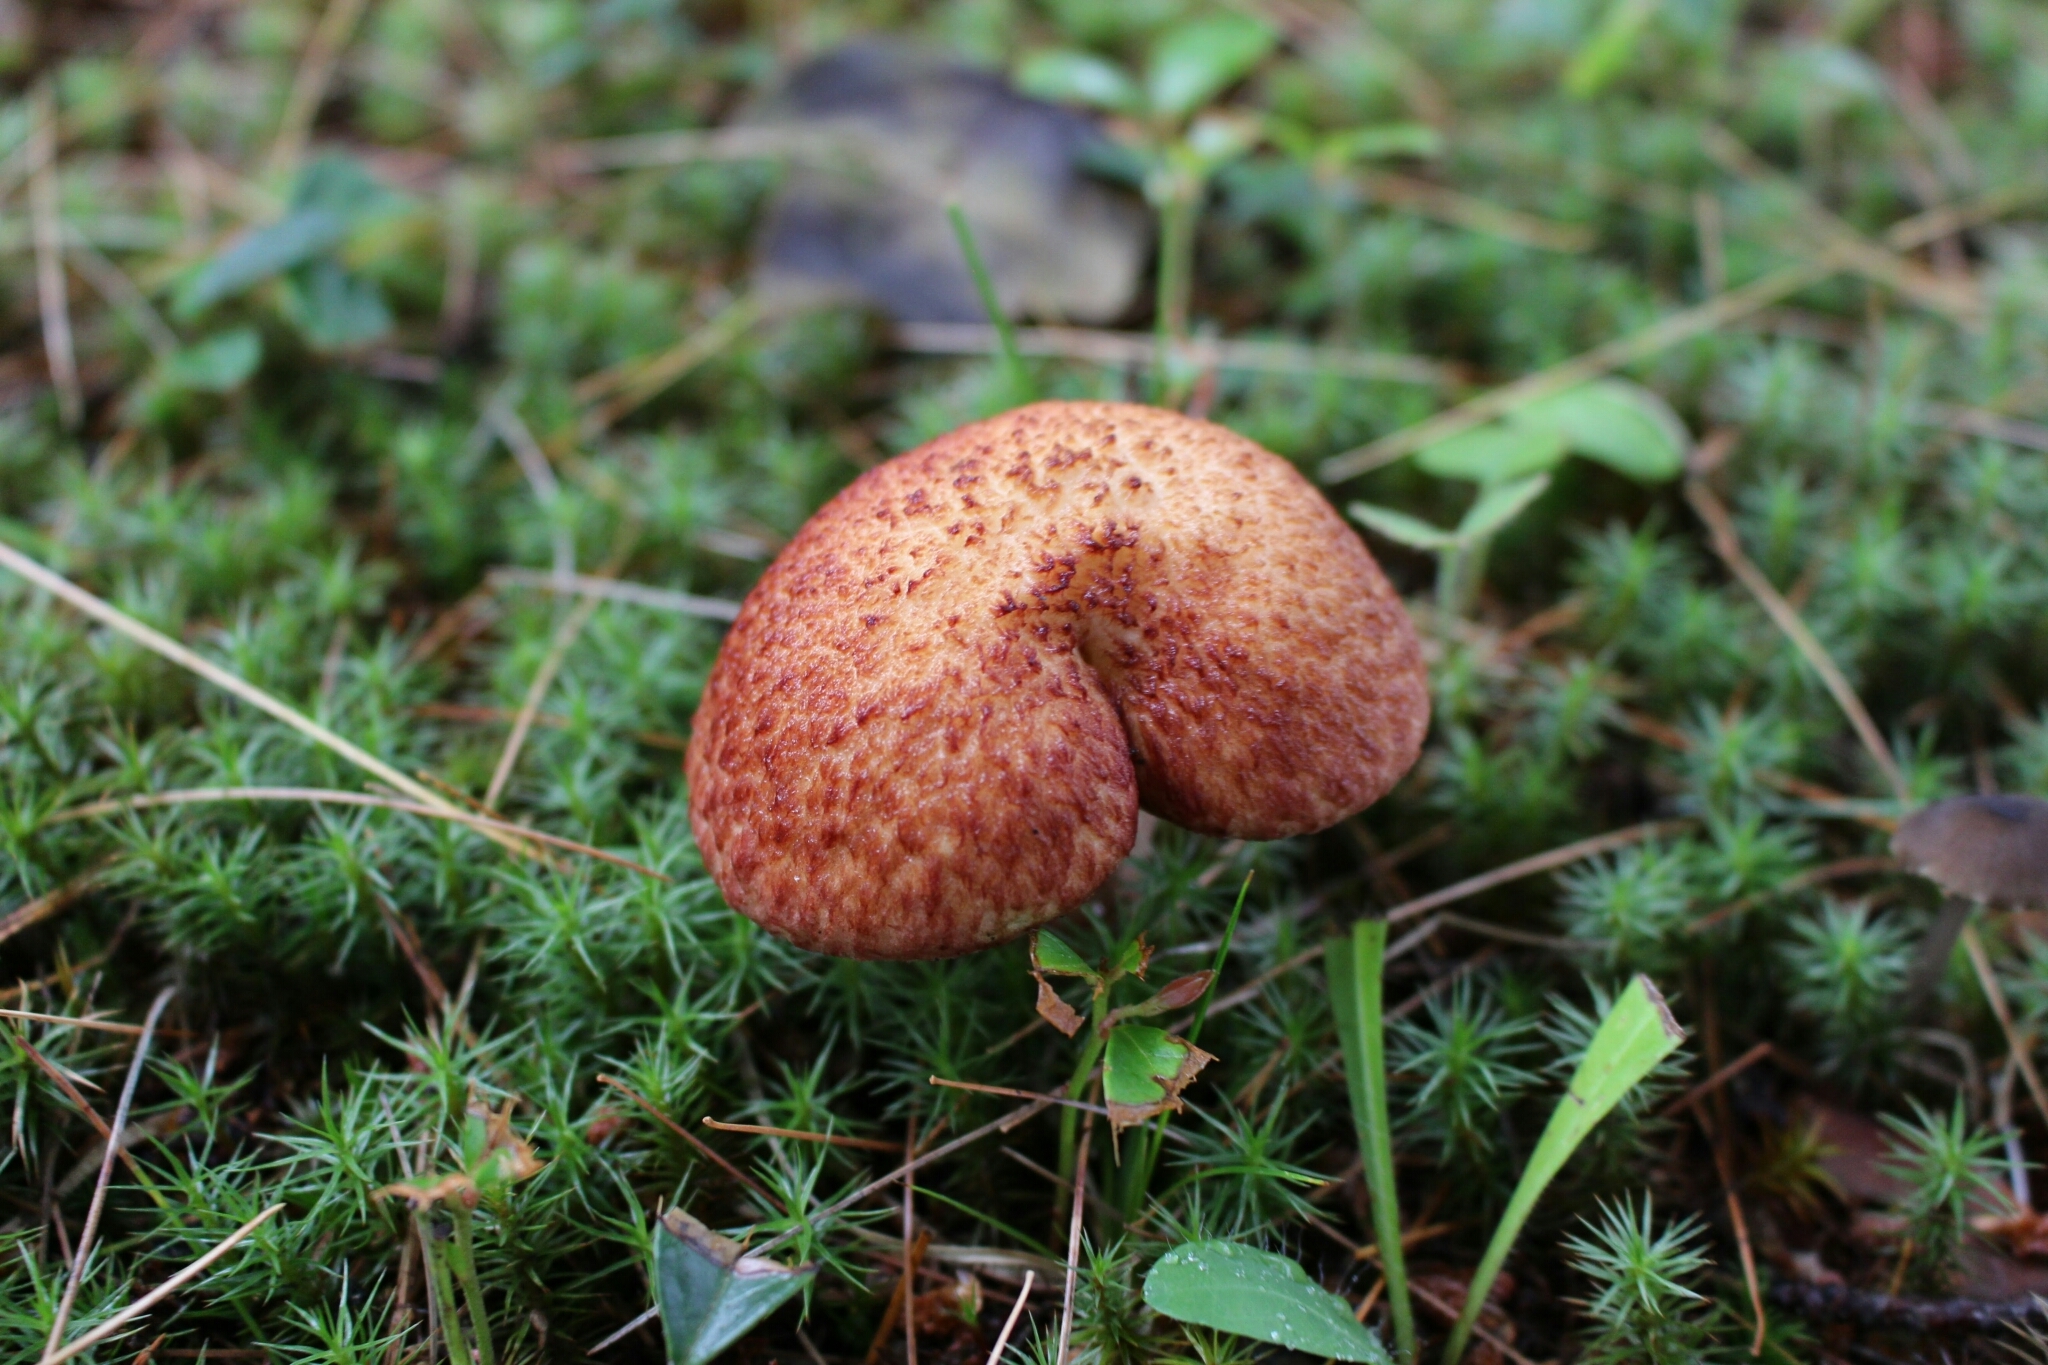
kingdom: Fungi
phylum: Basidiomycota
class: Agaricomycetes
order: Boletales
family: Suillaceae
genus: Suillus
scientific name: Suillus spraguei
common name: Painted suillus
